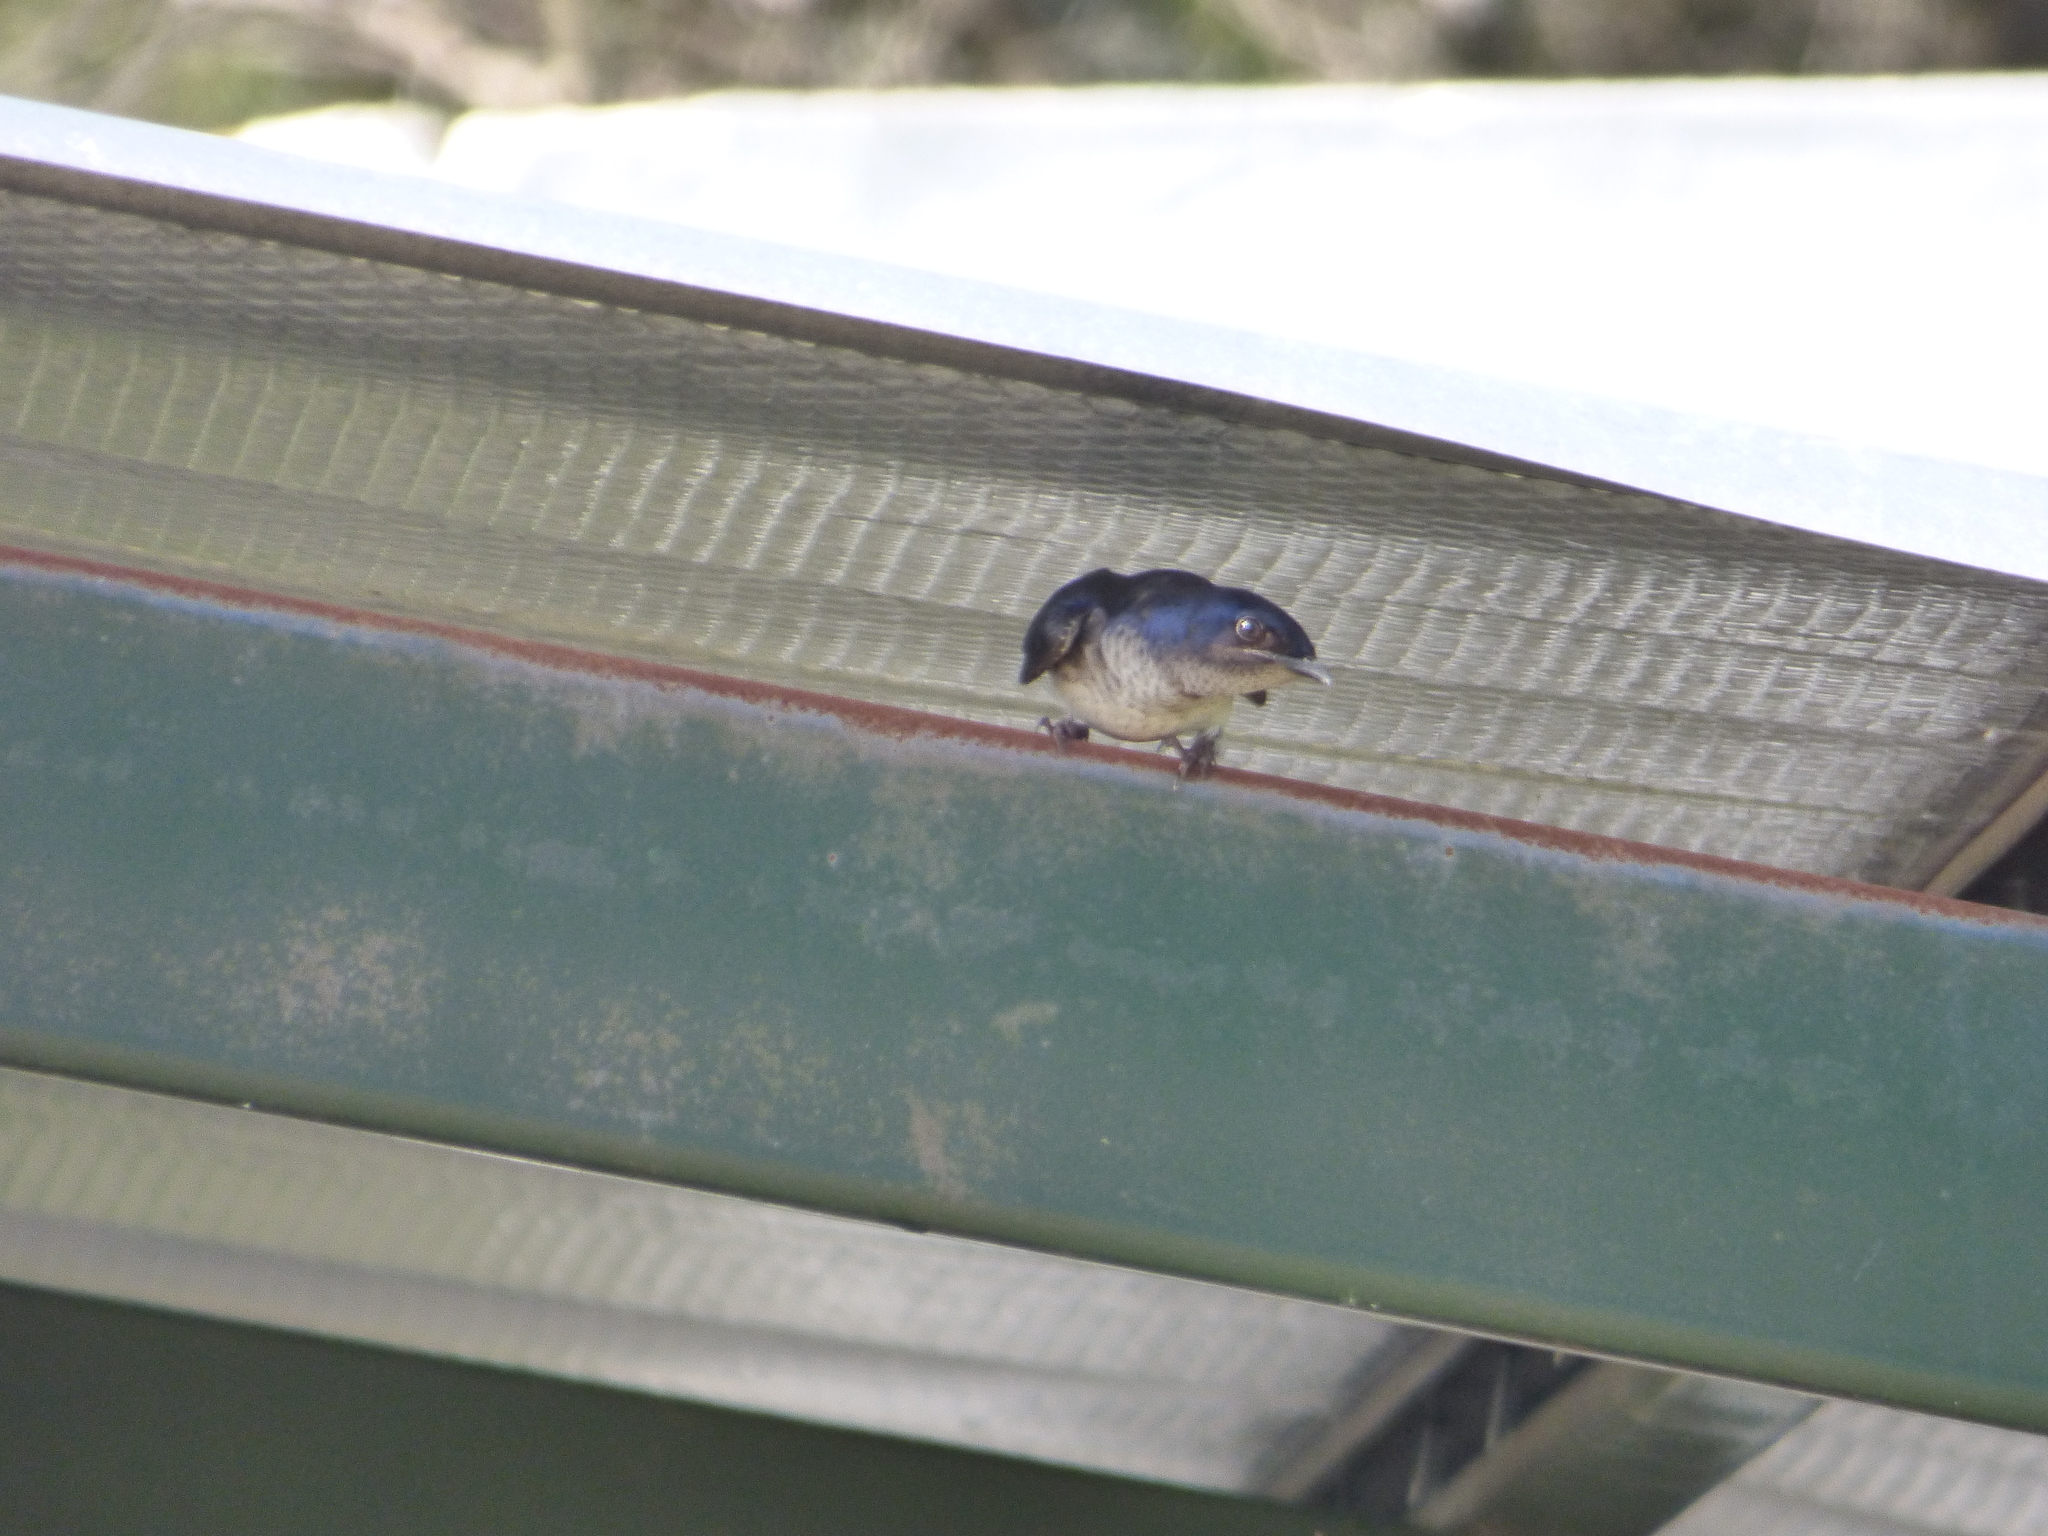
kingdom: Animalia
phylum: Chordata
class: Aves
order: Passeriformes
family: Hirundinidae
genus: Progne
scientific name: Progne chalybea
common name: Grey-breasted martin
